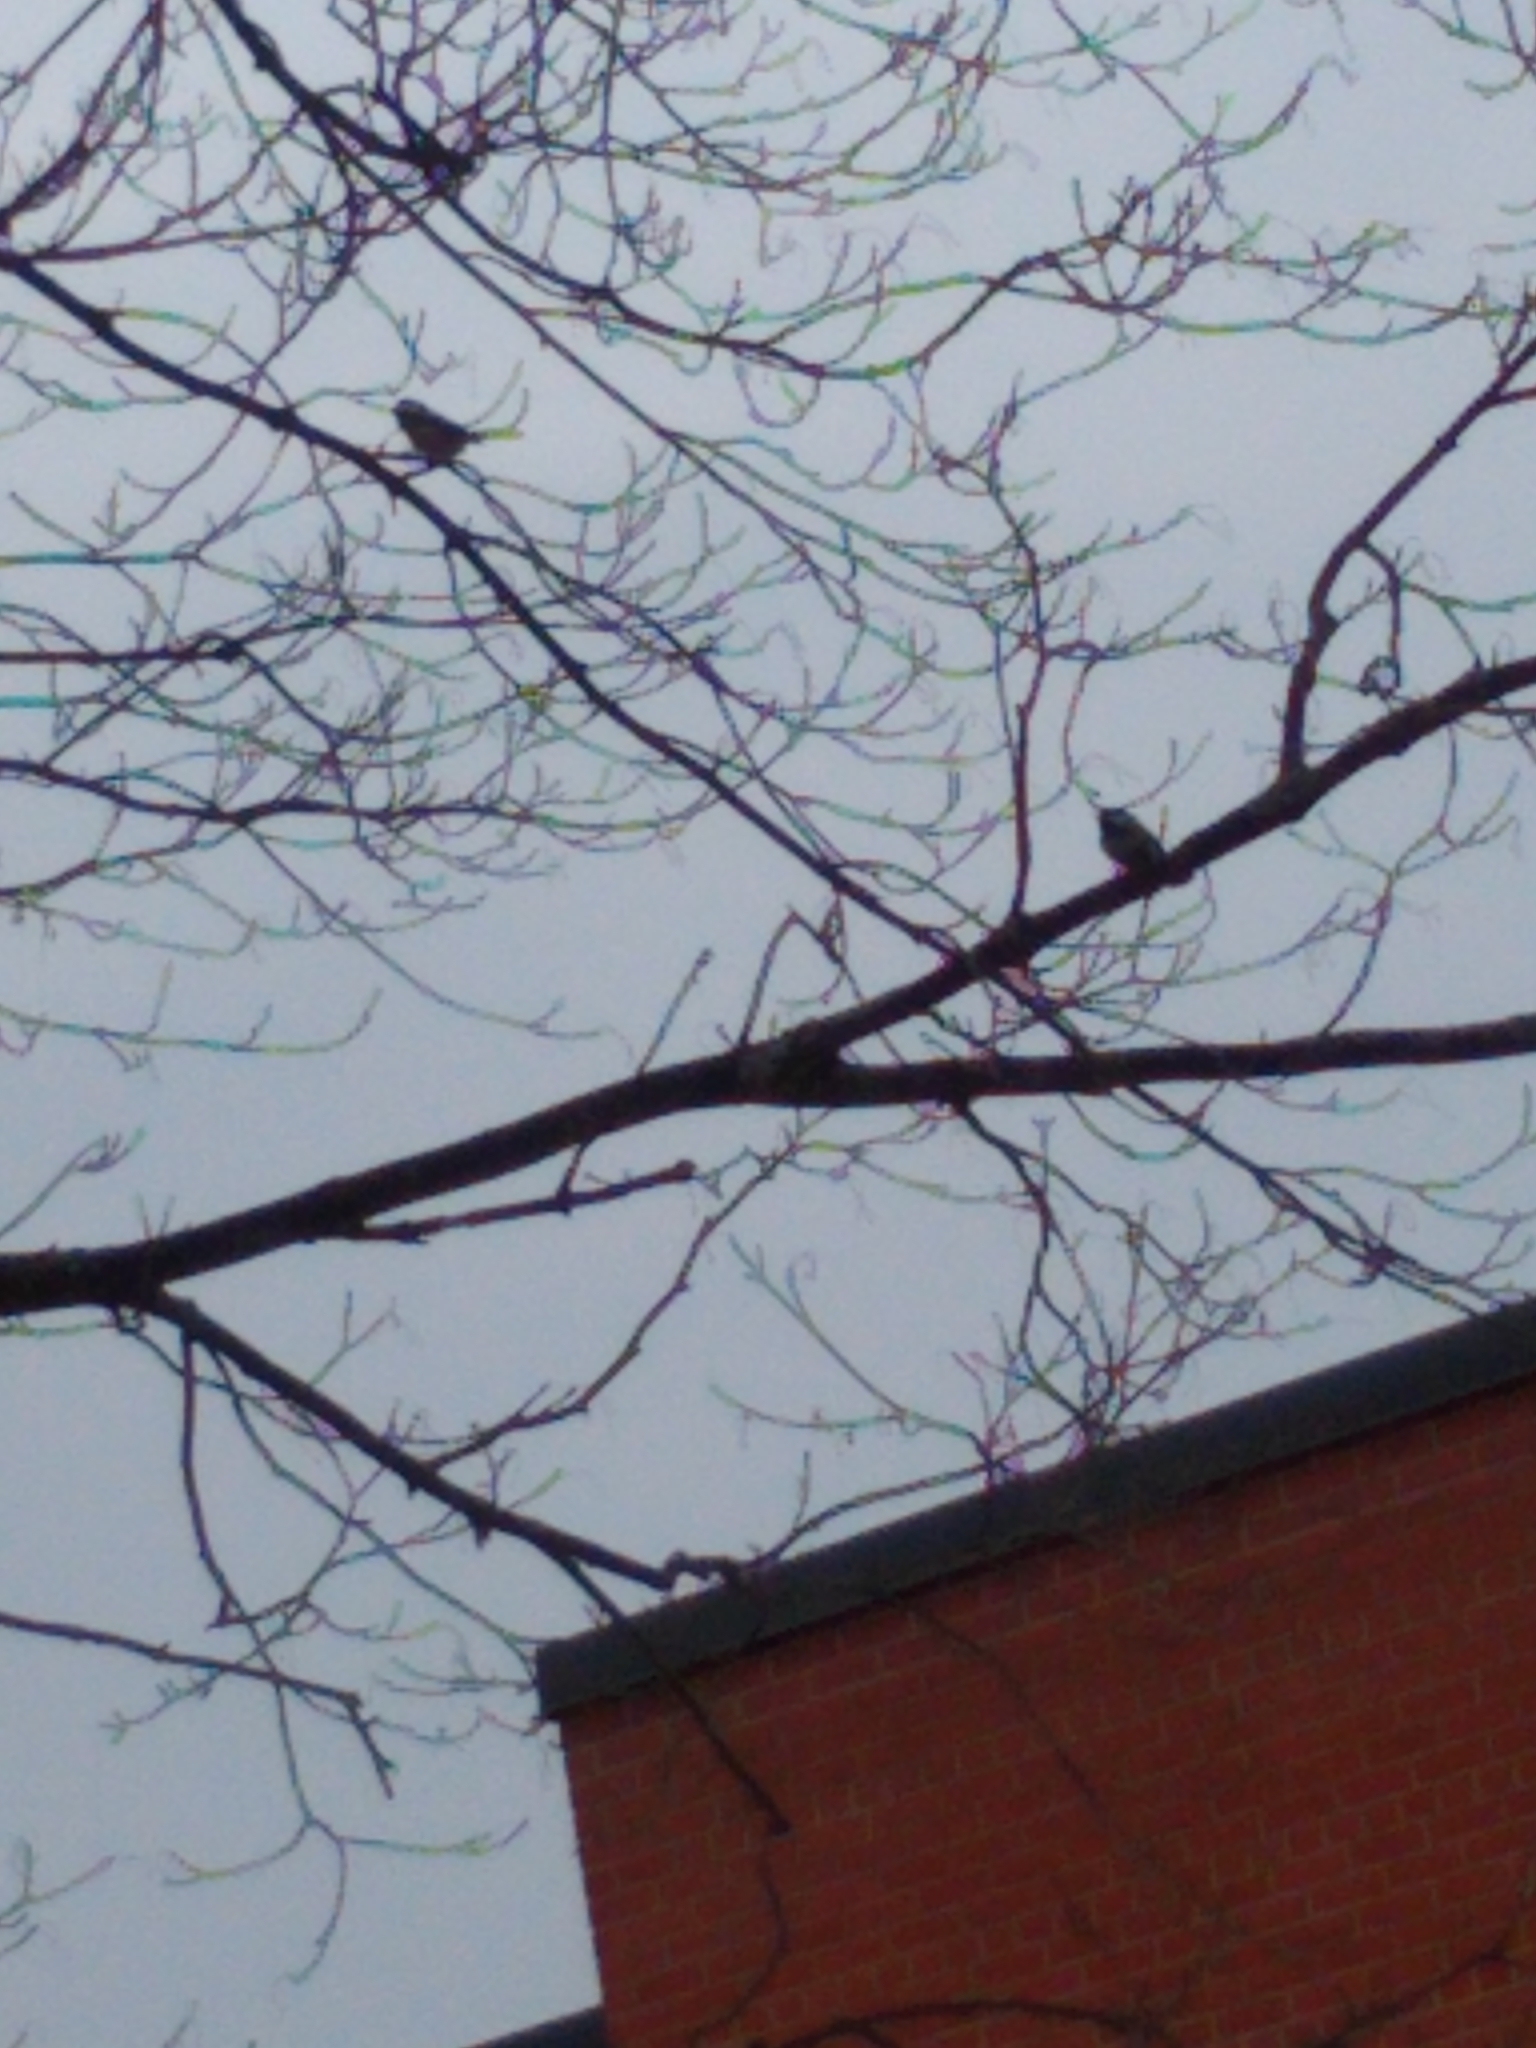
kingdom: Animalia
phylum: Chordata
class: Aves
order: Passeriformes
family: Paridae
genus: Poecile
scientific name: Poecile atricapillus
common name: Black-capped chickadee
